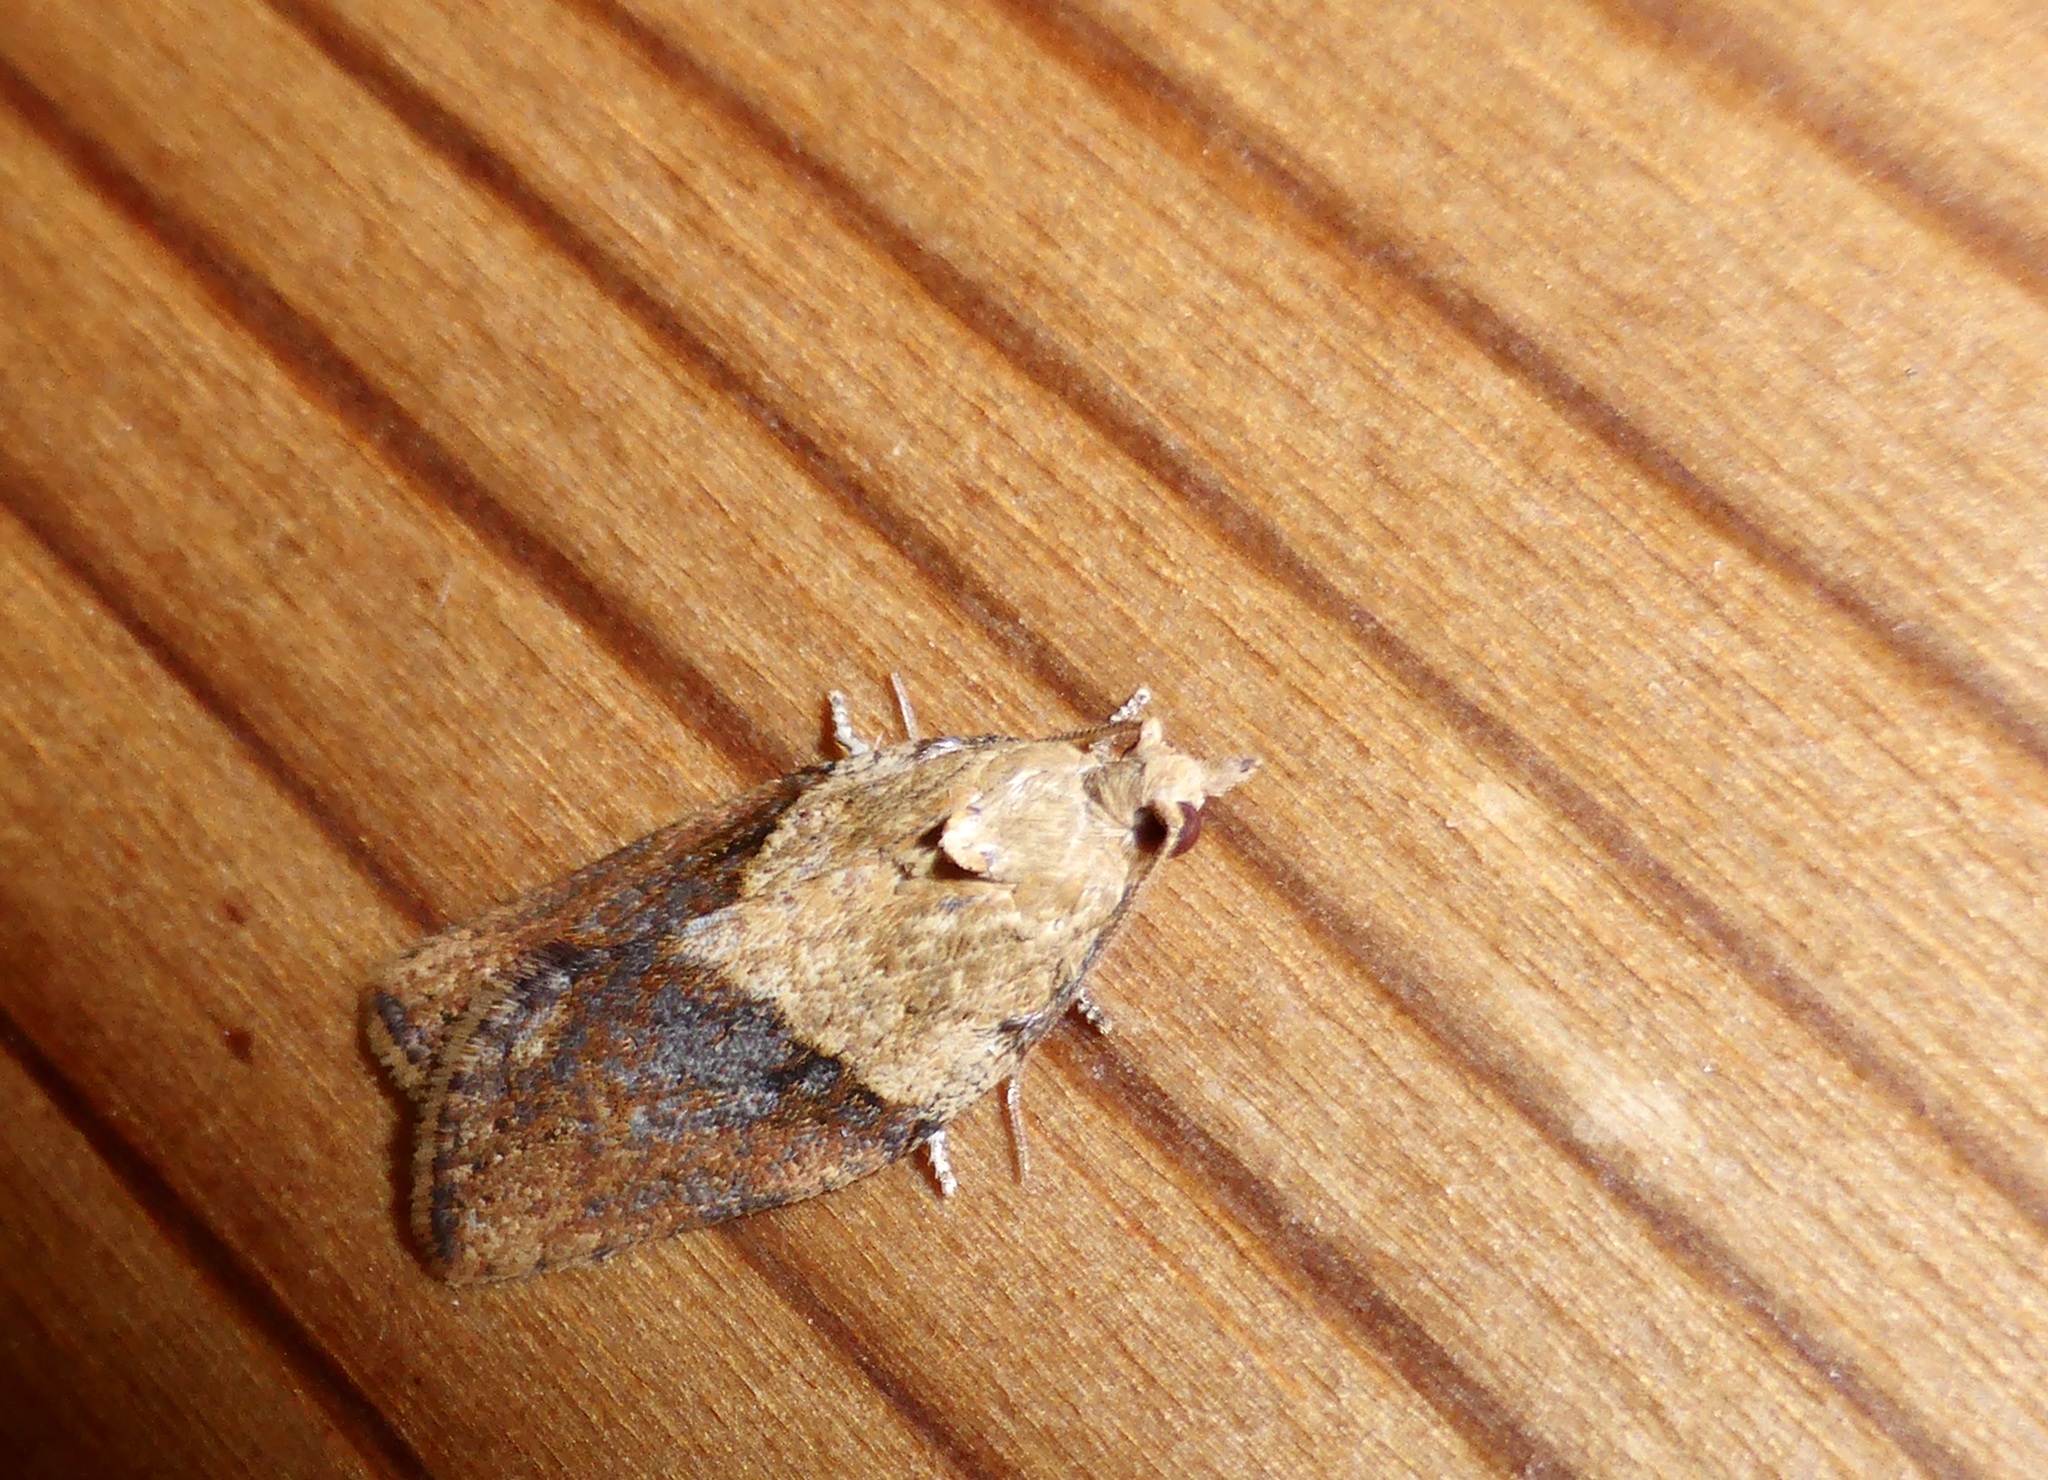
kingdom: Animalia
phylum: Arthropoda
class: Insecta
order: Lepidoptera
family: Tortricidae
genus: Epiphyas
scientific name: Epiphyas postvittana
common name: Light brown apple moth
